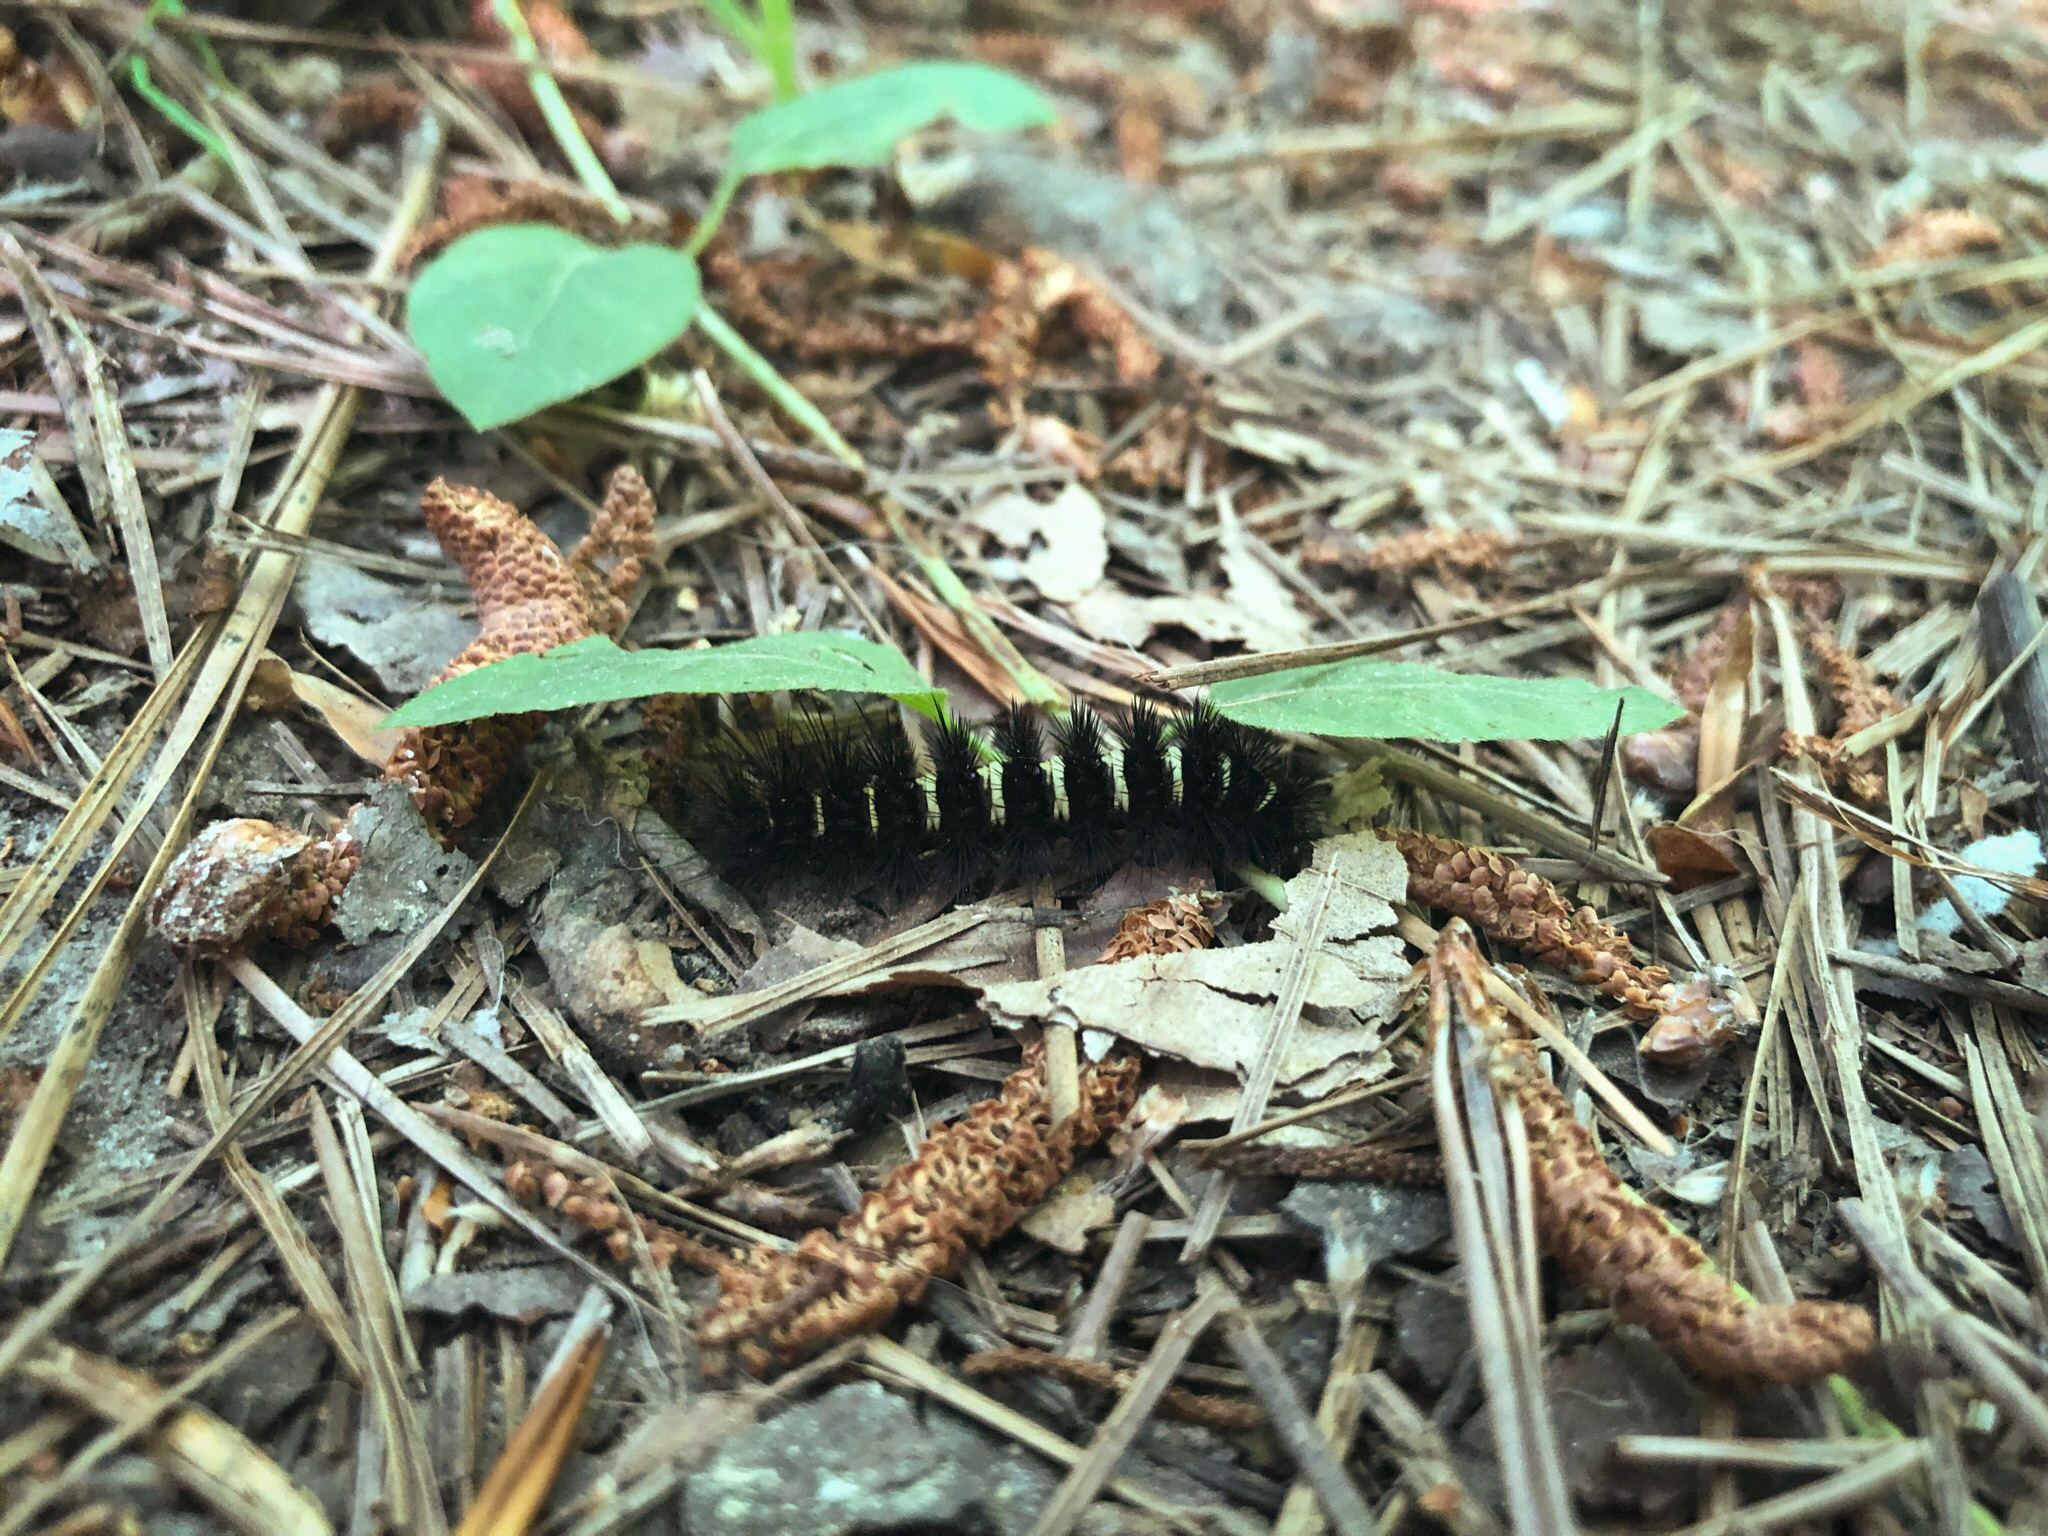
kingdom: Animalia
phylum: Arthropoda
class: Insecta
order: Lepidoptera
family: Erebidae
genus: Spilosoma
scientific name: Spilosoma congrua
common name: Agreeable tiger moth
